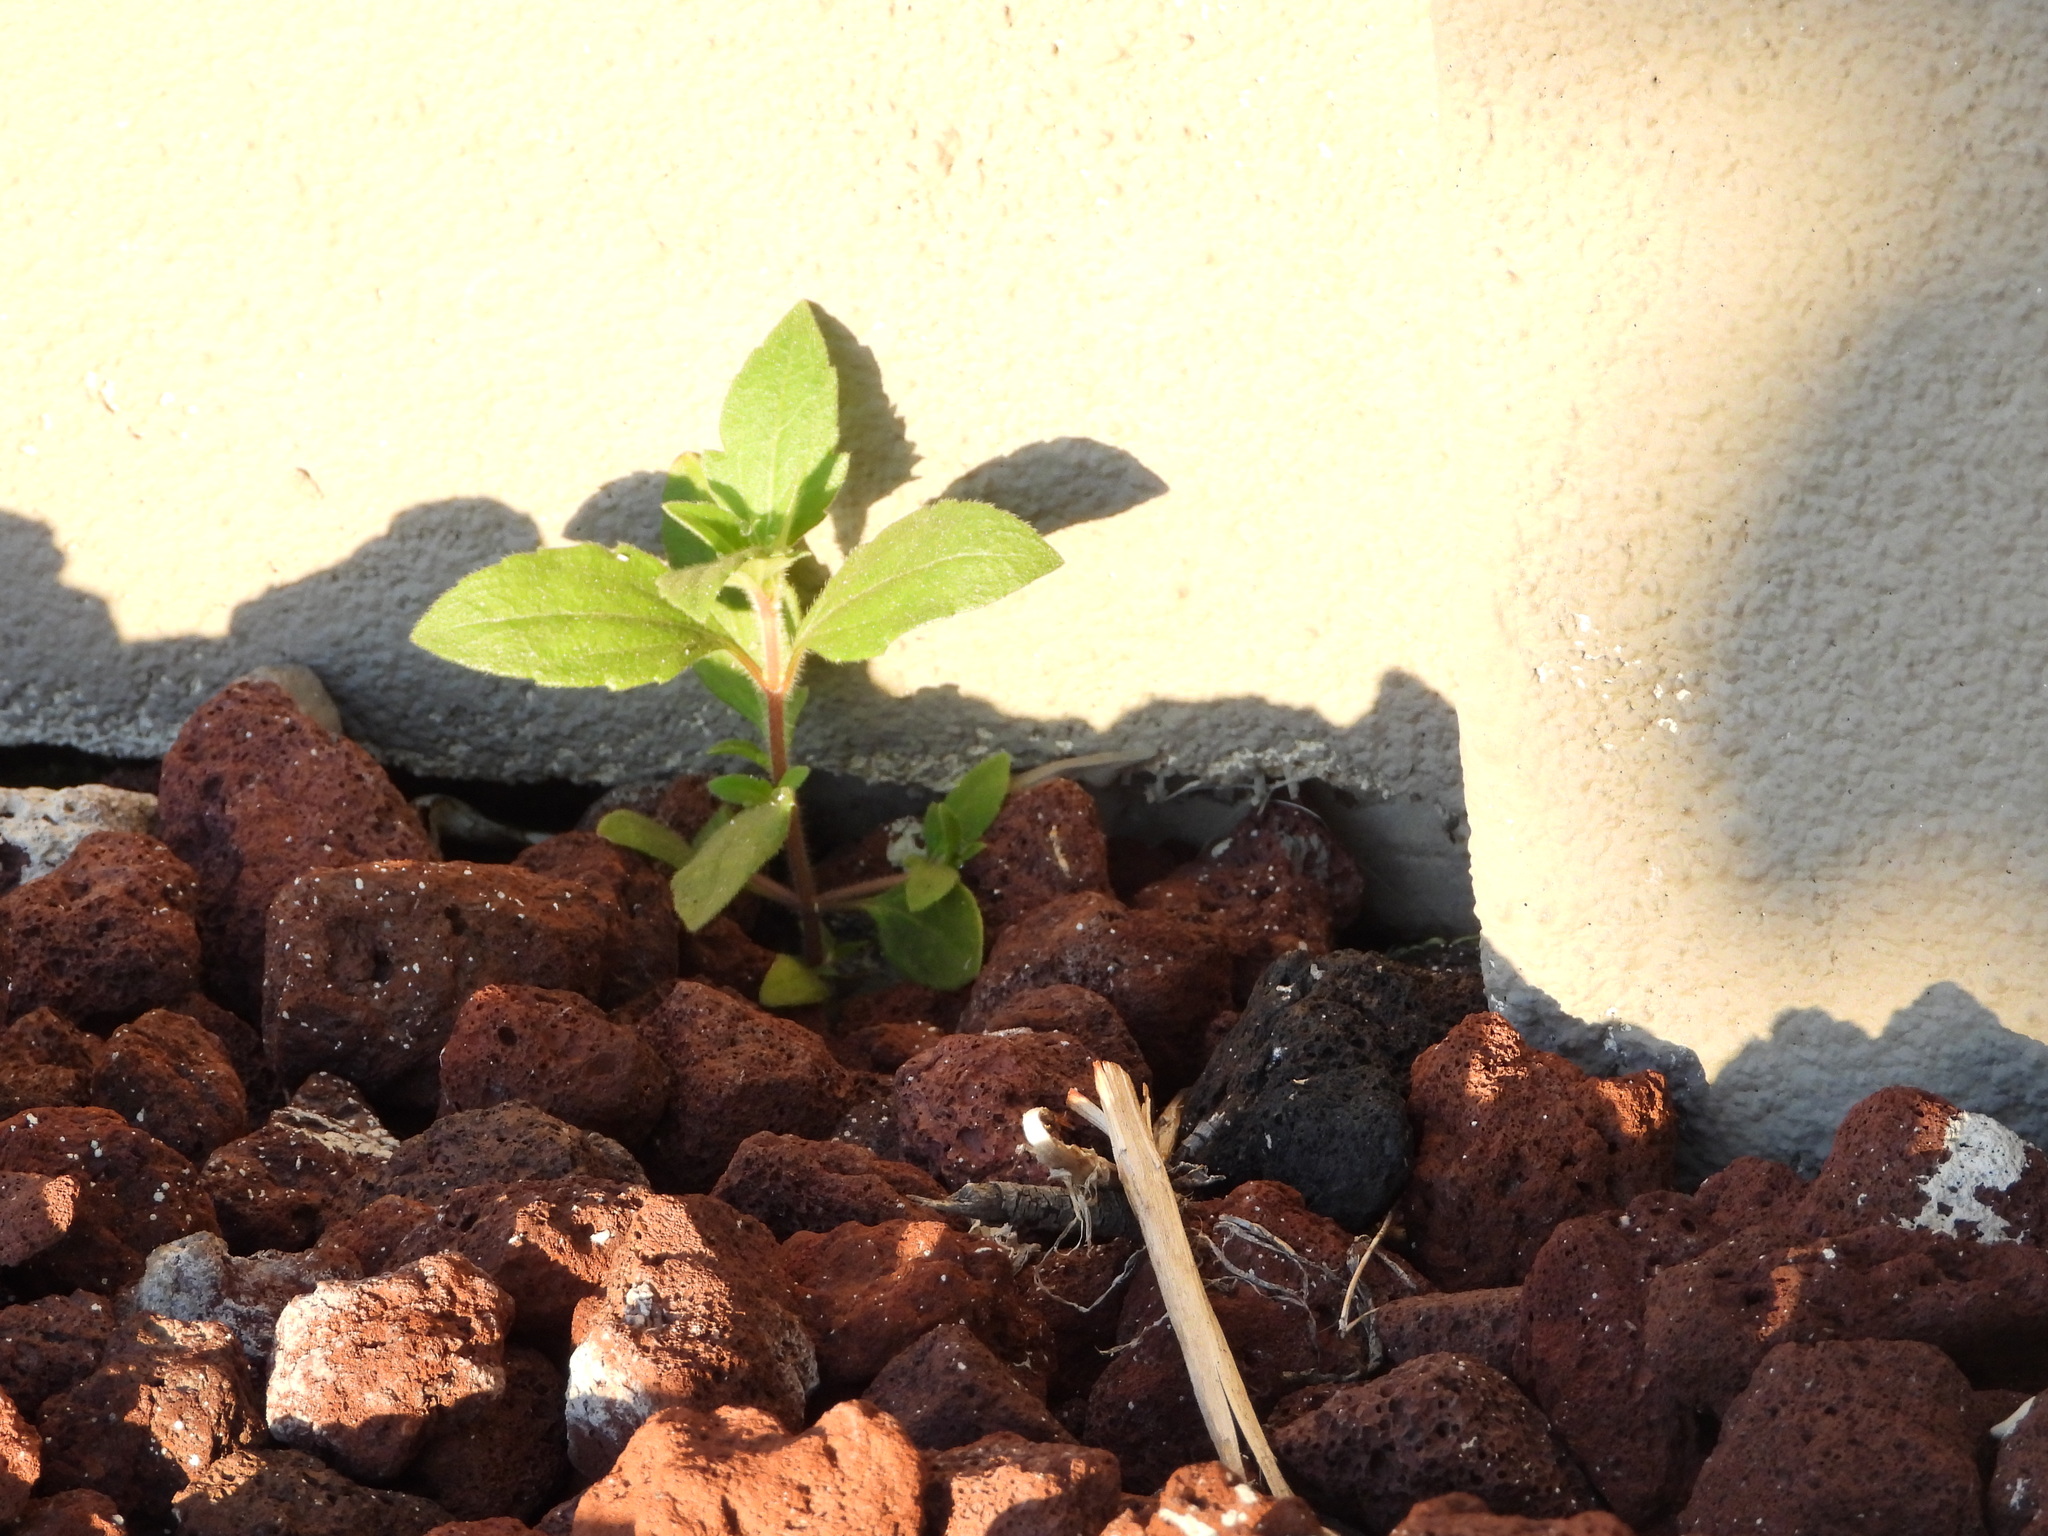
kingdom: Plantae
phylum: Tracheophyta
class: Magnoliopsida
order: Asterales
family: Asteraceae
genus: Tridax
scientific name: Tridax procumbens
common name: Coatbuttons
